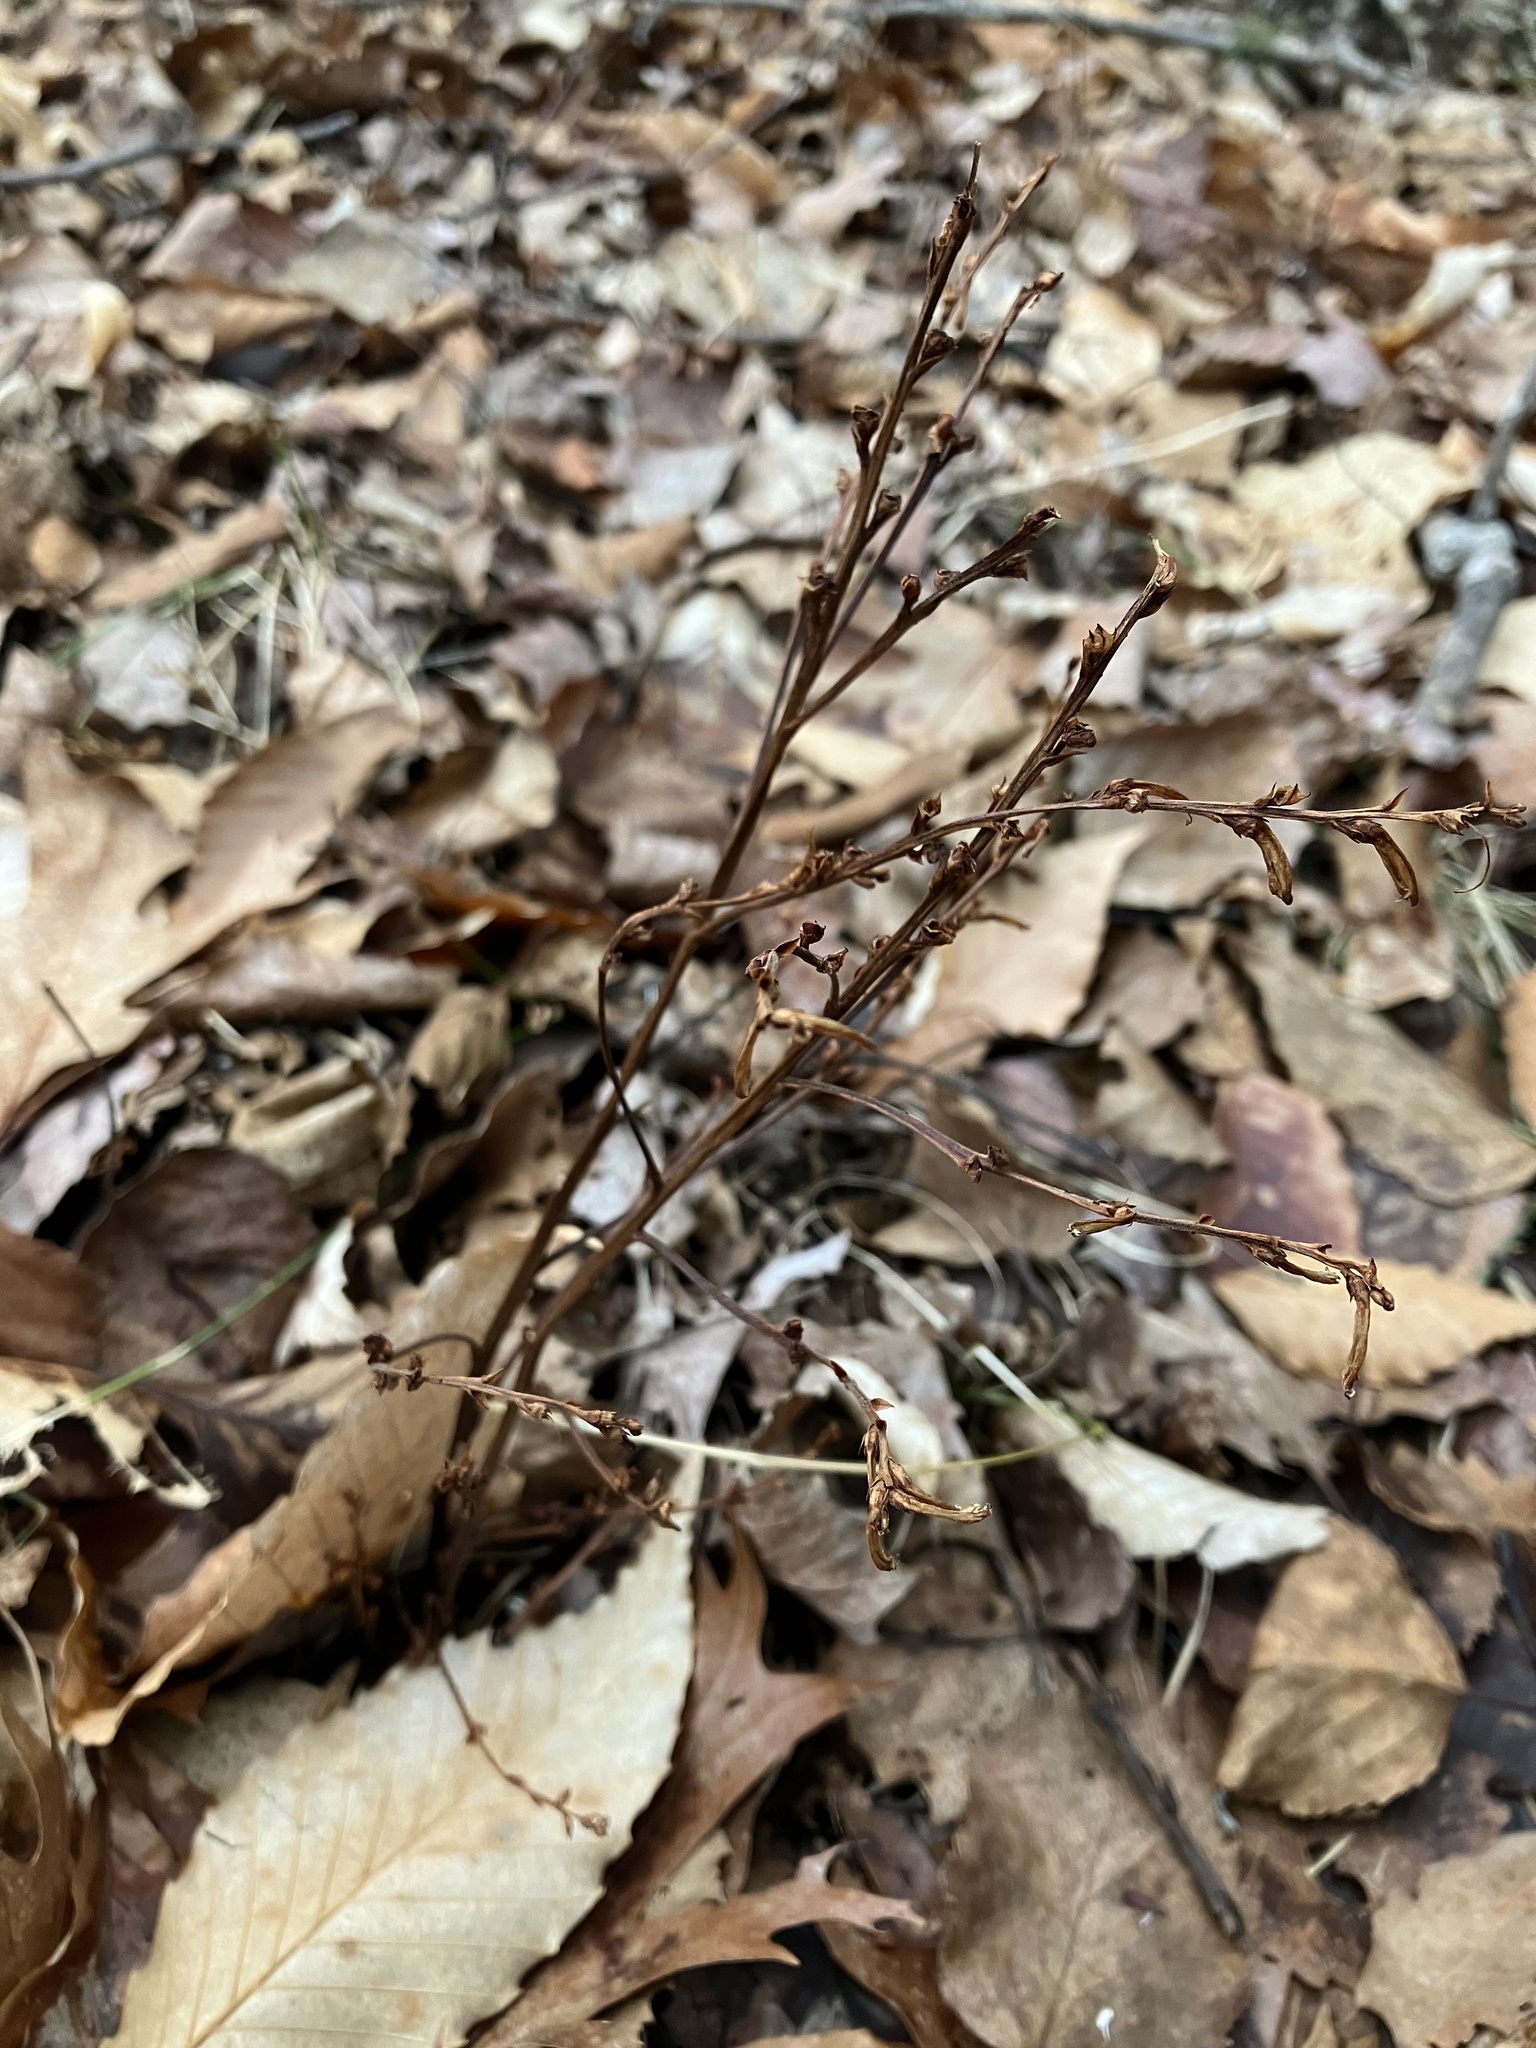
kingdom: Plantae
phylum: Tracheophyta
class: Magnoliopsida
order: Lamiales
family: Orobanchaceae
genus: Epifagus
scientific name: Epifagus virginiana
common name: Beechdrops
